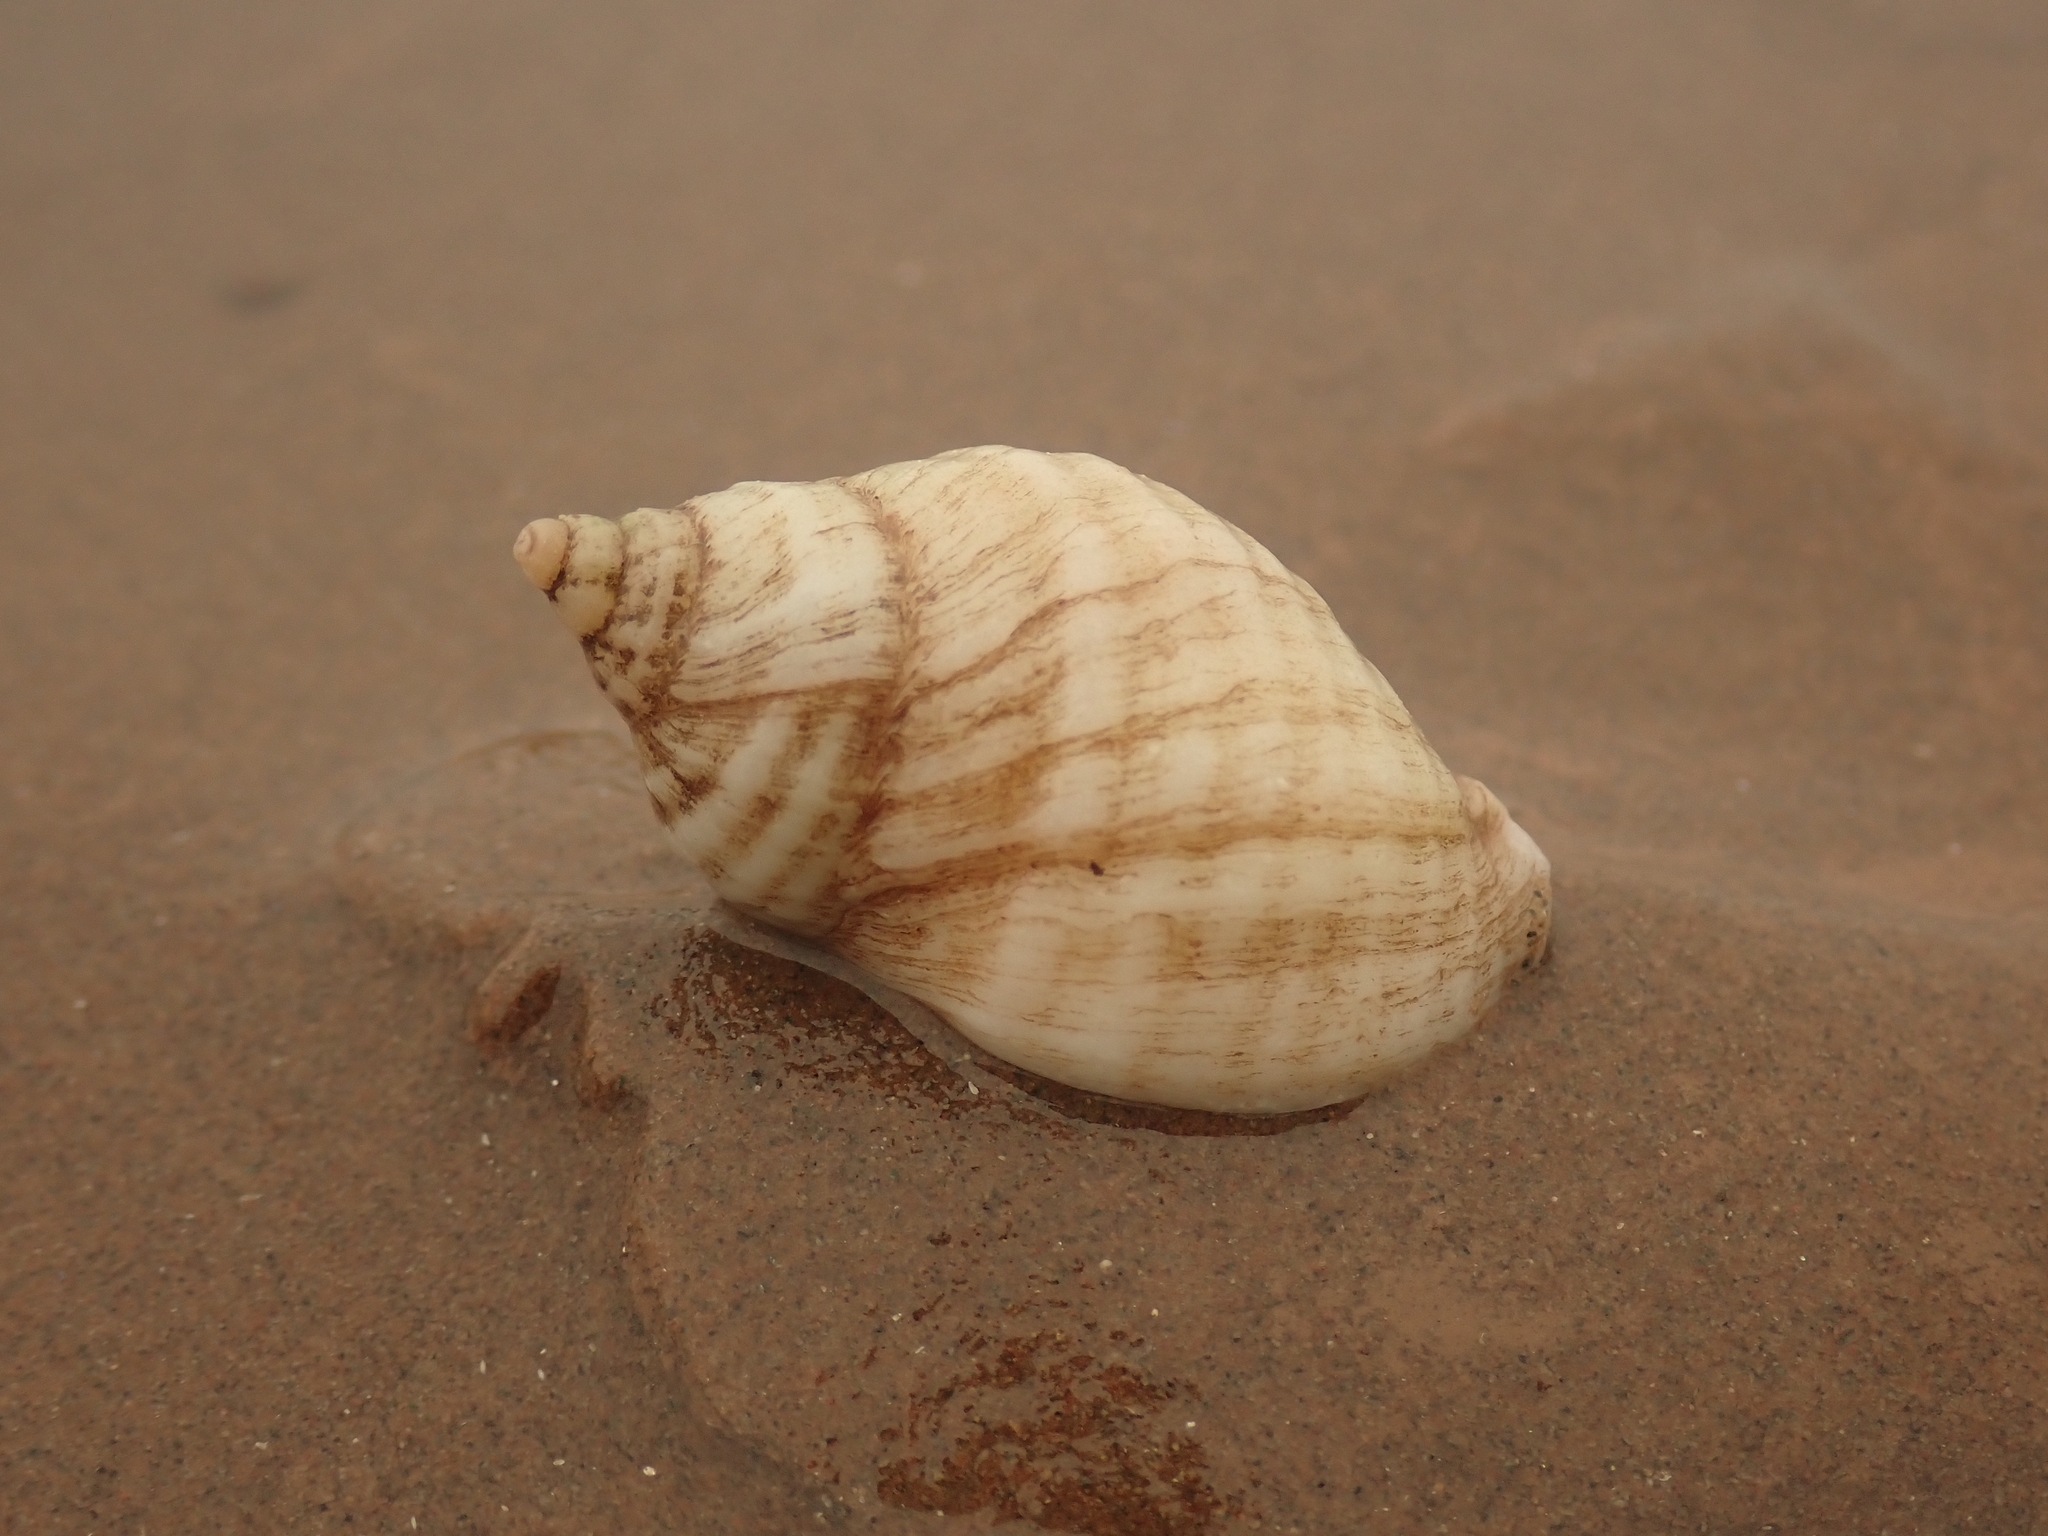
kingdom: Animalia
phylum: Mollusca
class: Gastropoda
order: Neogastropoda
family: Muricidae
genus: Nucella
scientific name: Nucella lapillus
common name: Dog whelk
